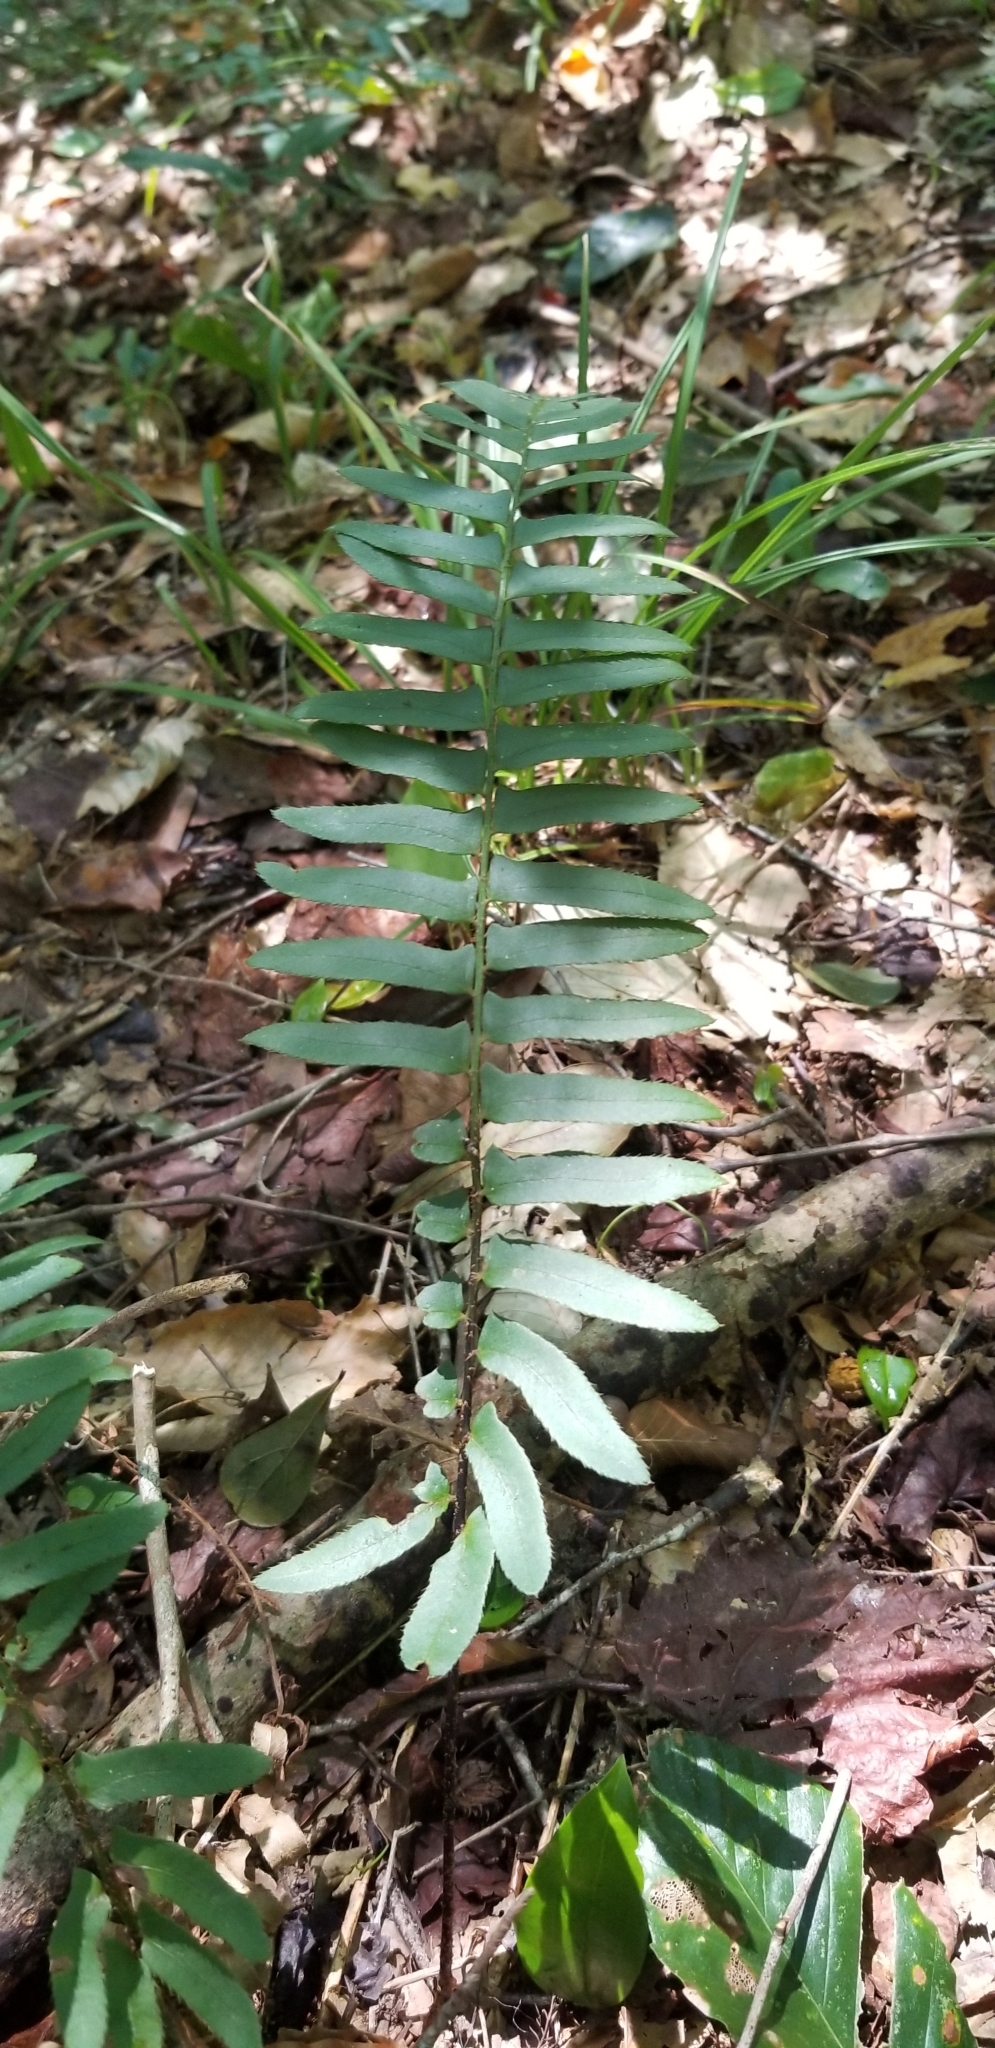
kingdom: Plantae
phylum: Tracheophyta
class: Polypodiopsida
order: Polypodiales
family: Dryopteridaceae
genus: Polystichum
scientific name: Polystichum acrostichoides
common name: Christmas fern
